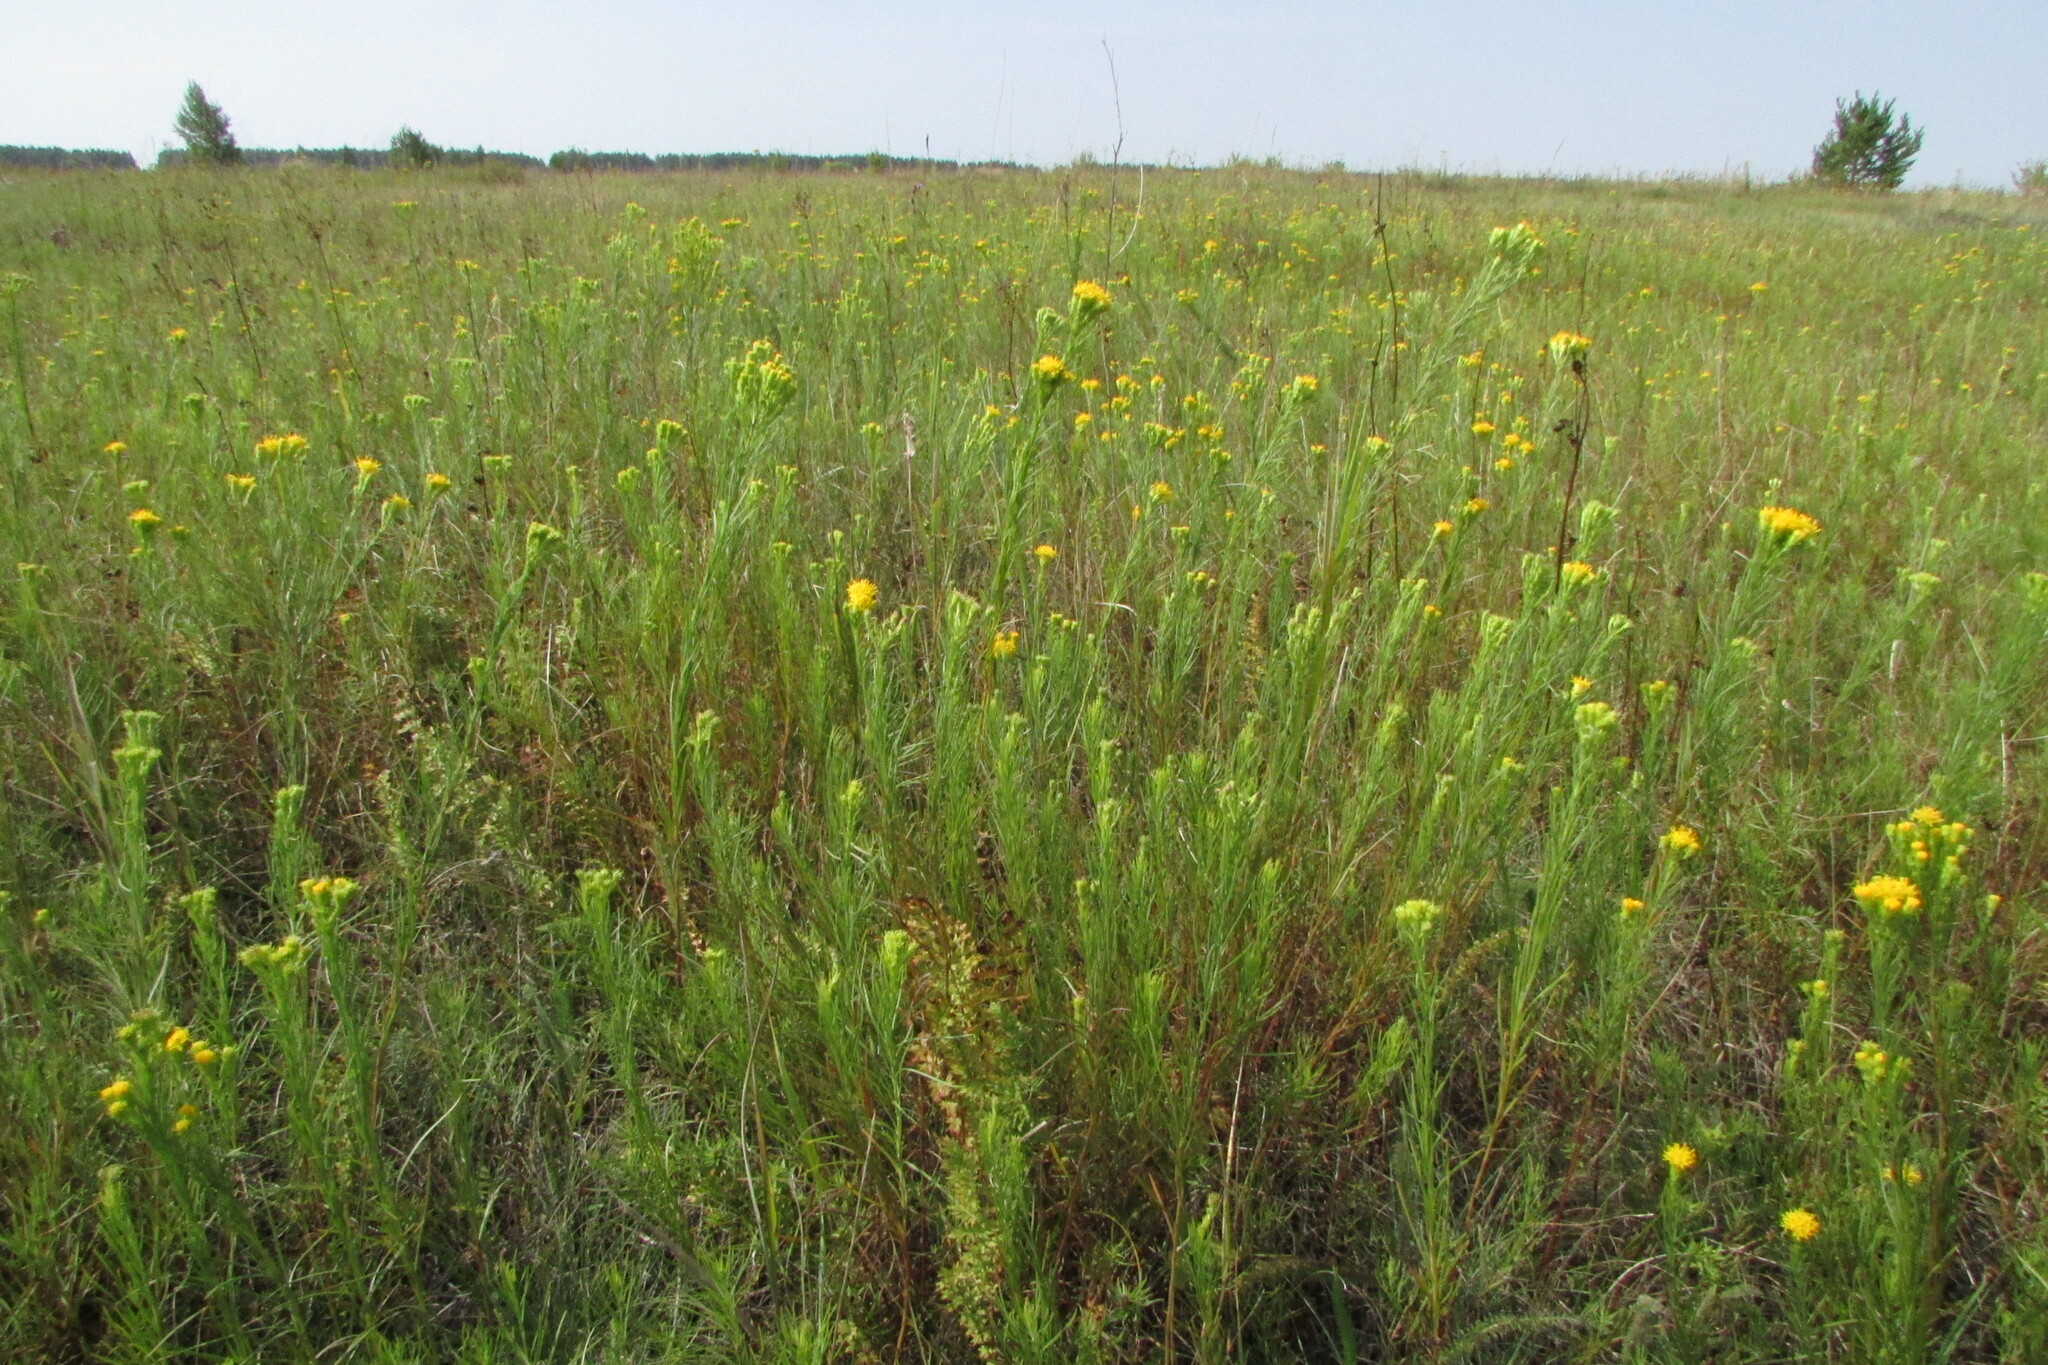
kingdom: Plantae
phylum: Tracheophyta
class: Magnoliopsida
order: Asterales
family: Asteraceae
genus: Galatella
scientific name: Galatella linosyris
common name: Goldilocks aster
